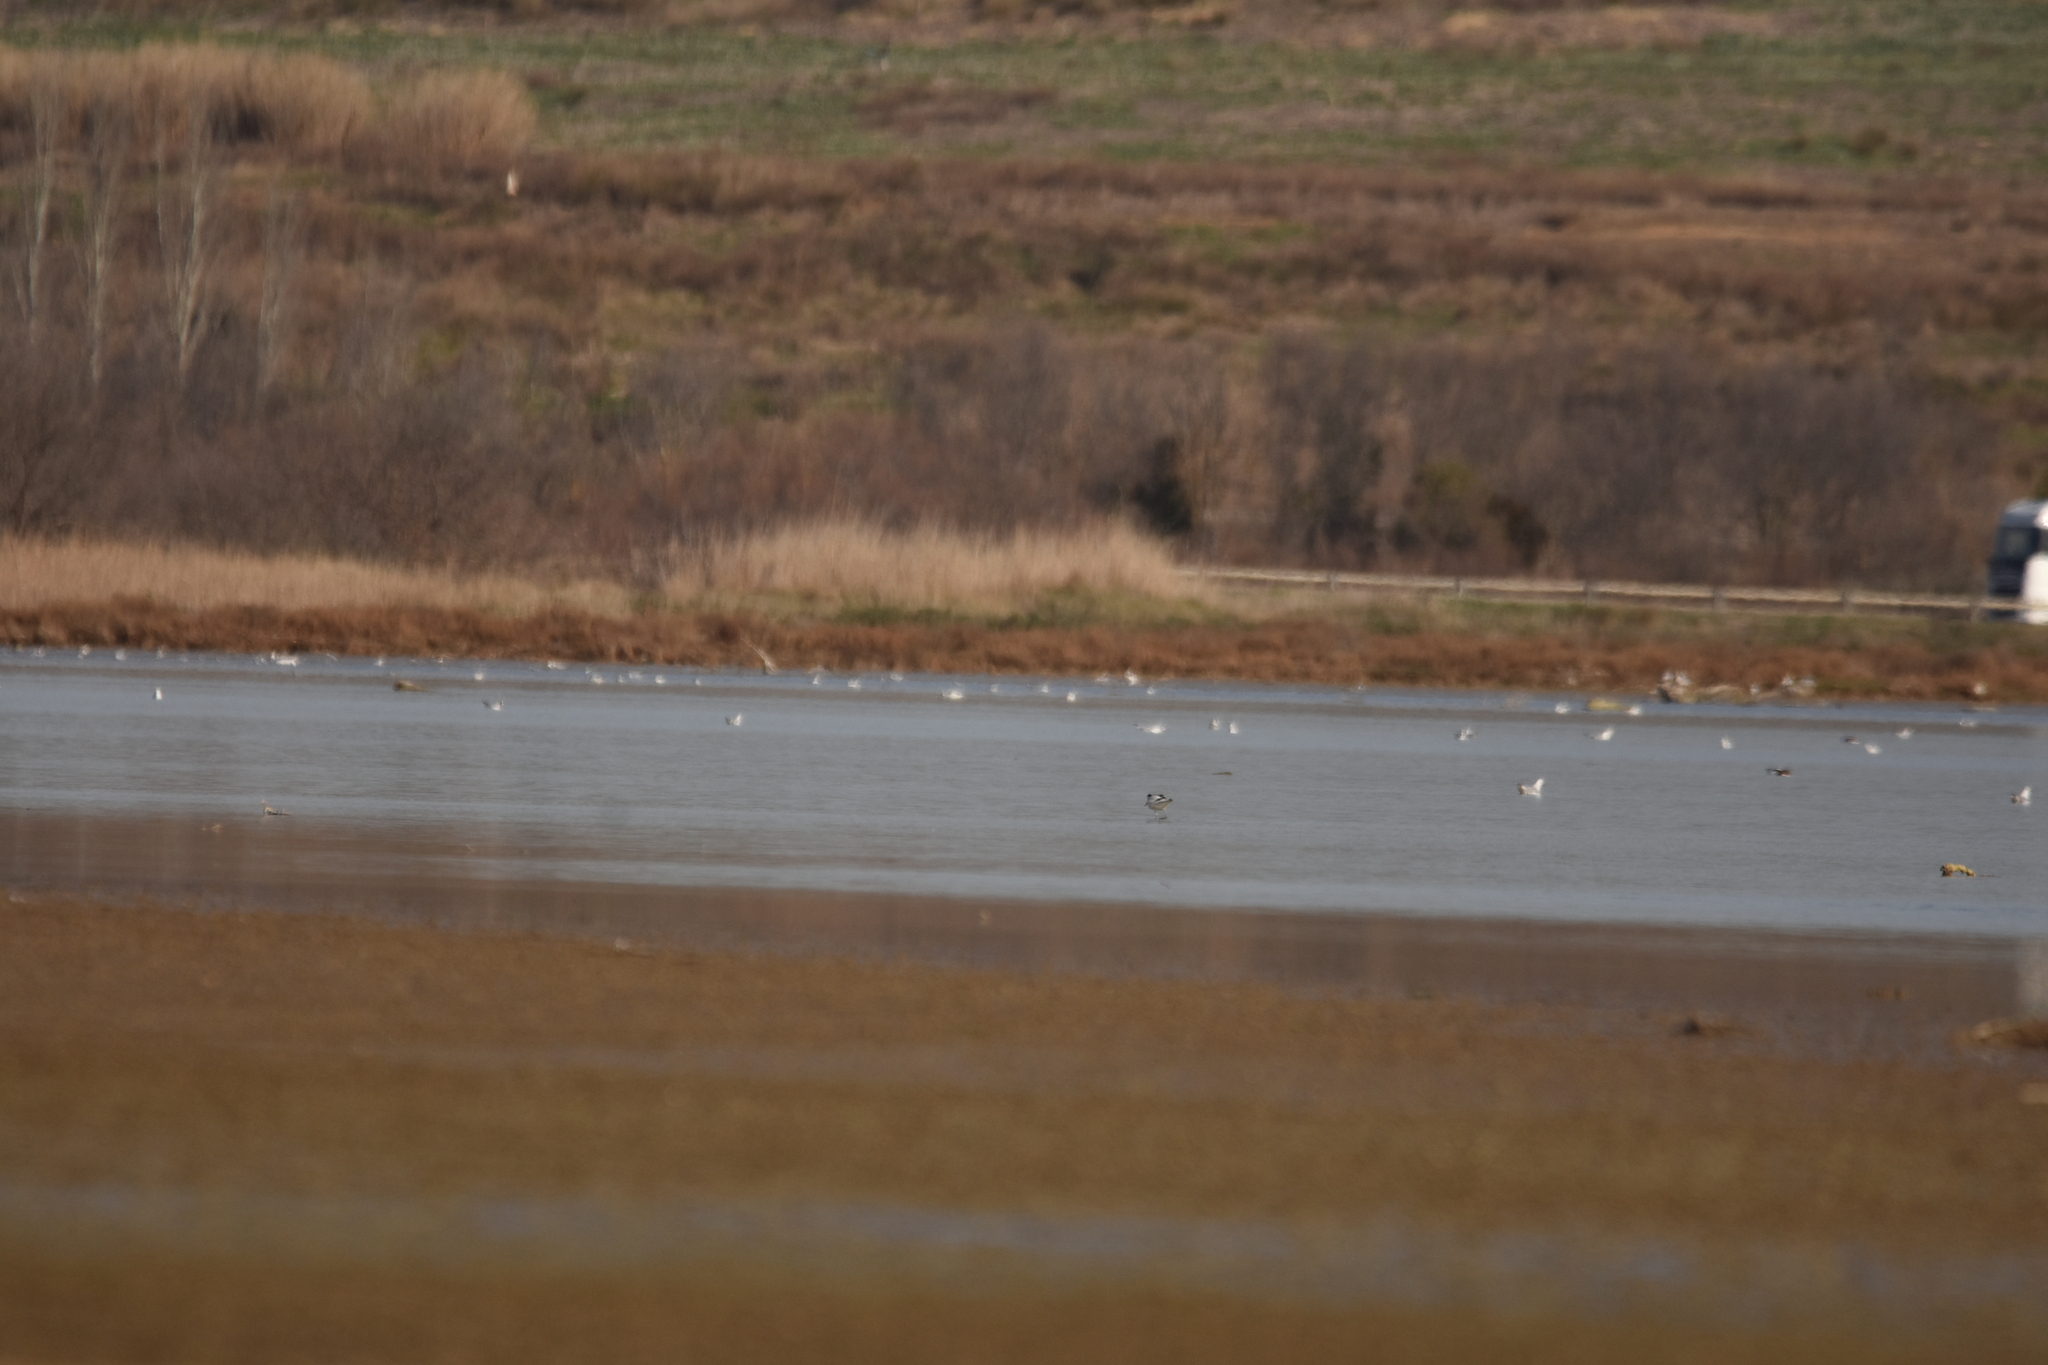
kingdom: Animalia
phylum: Chordata
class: Aves
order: Charadriiformes
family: Recurvirostridae
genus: Recurvirostra
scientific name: Recurvirostra avosetta
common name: Pied avocet
